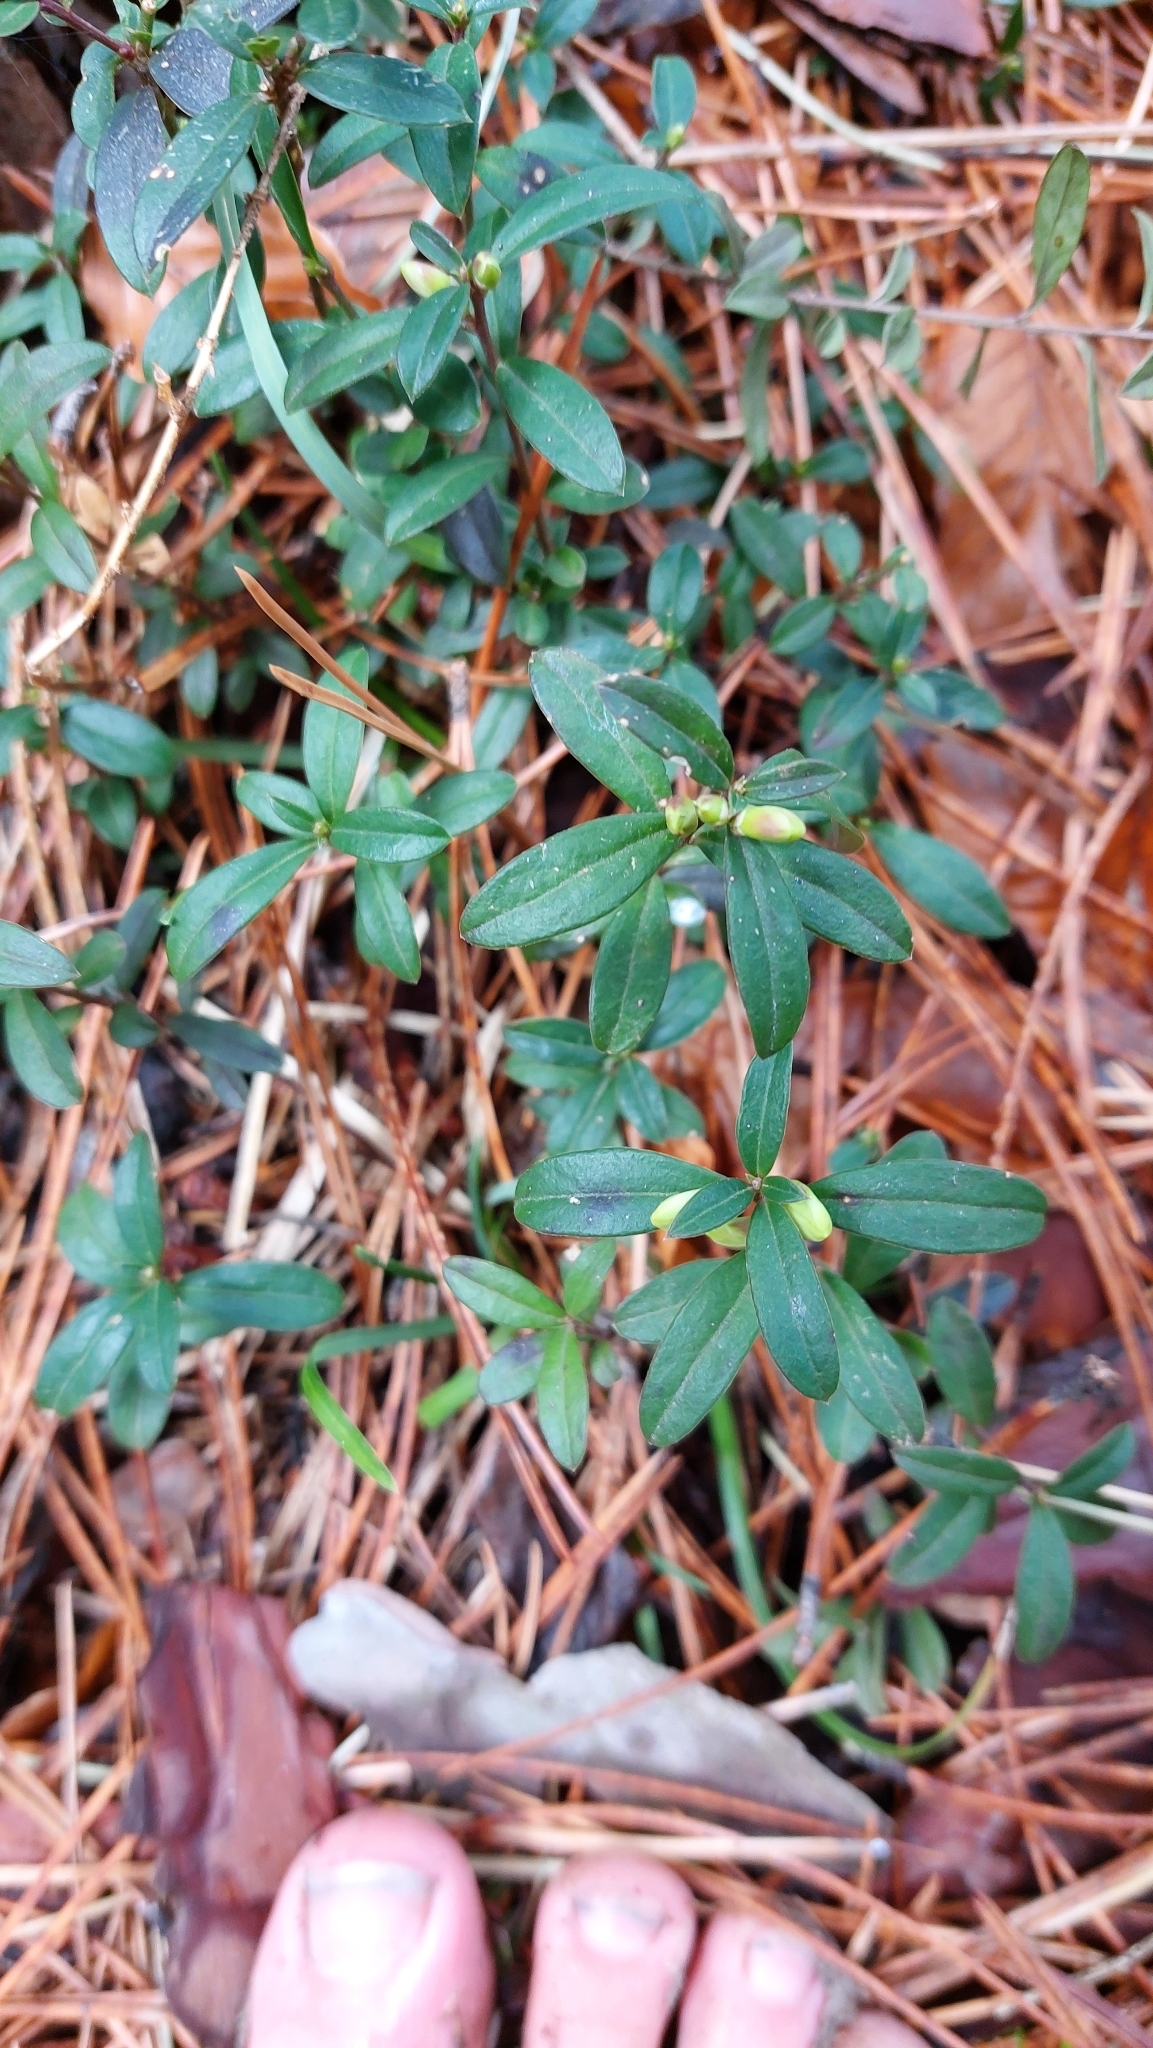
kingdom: Plantae
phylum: Tracheophyta
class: Magnoliopsida
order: Fabales
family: Polygalaceae
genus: Polygaloides
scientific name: Polygaloides chamaebuxus
